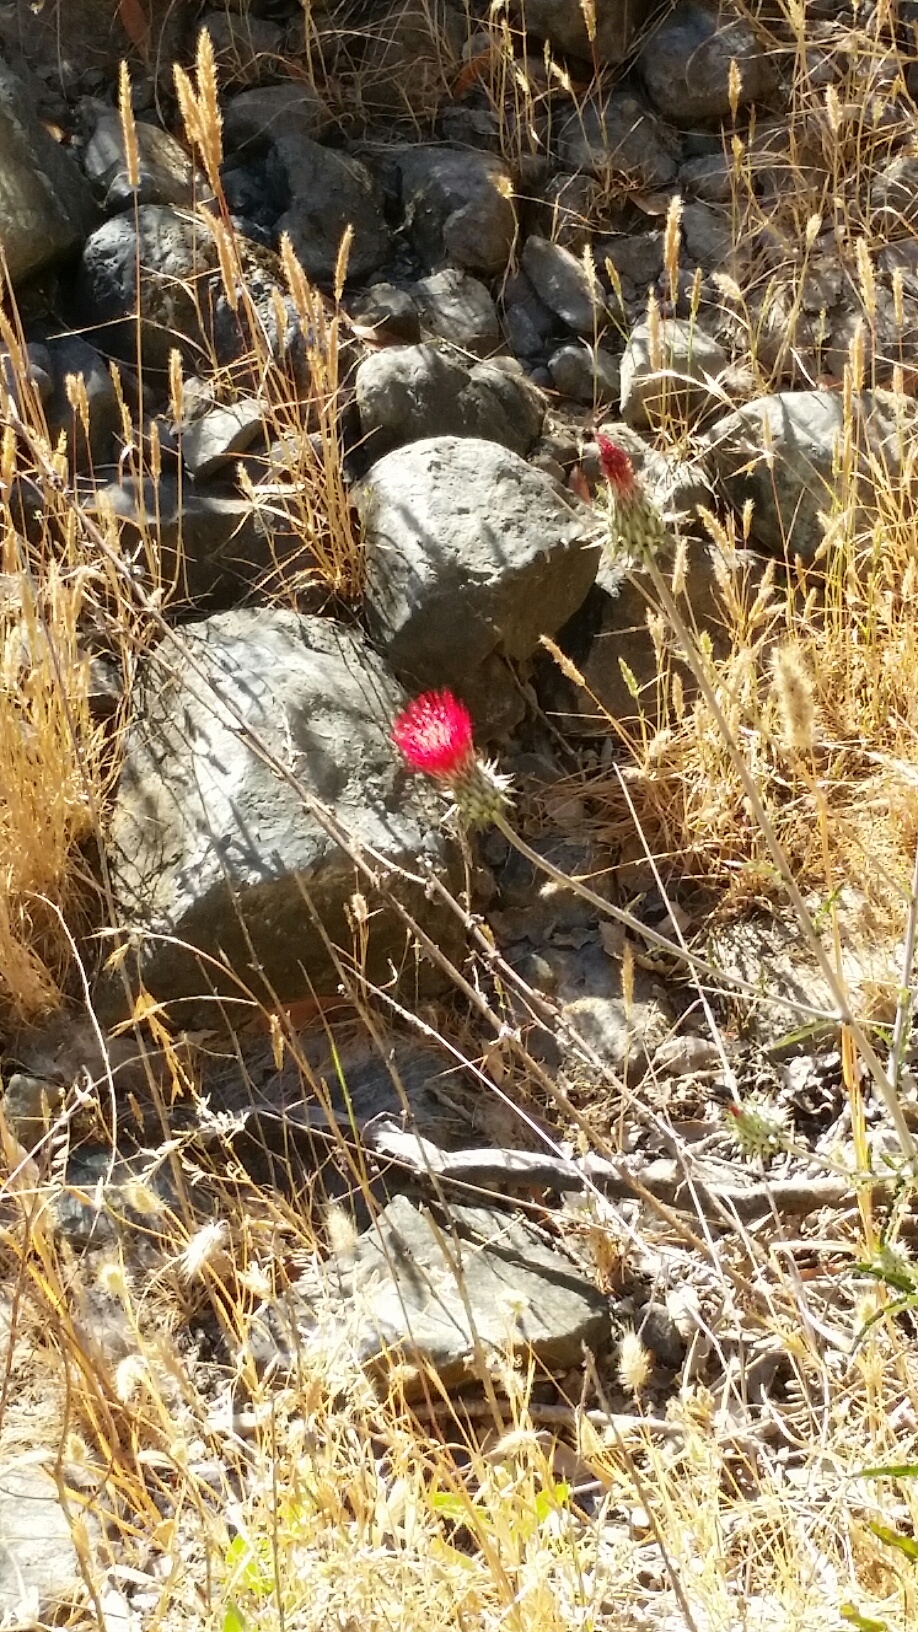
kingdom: Plantae
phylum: Tracheophyta
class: Magnoliopsida
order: Asterales
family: Asteraceae
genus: Cirsium
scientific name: Cirsium occidentale
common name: Western thistle
